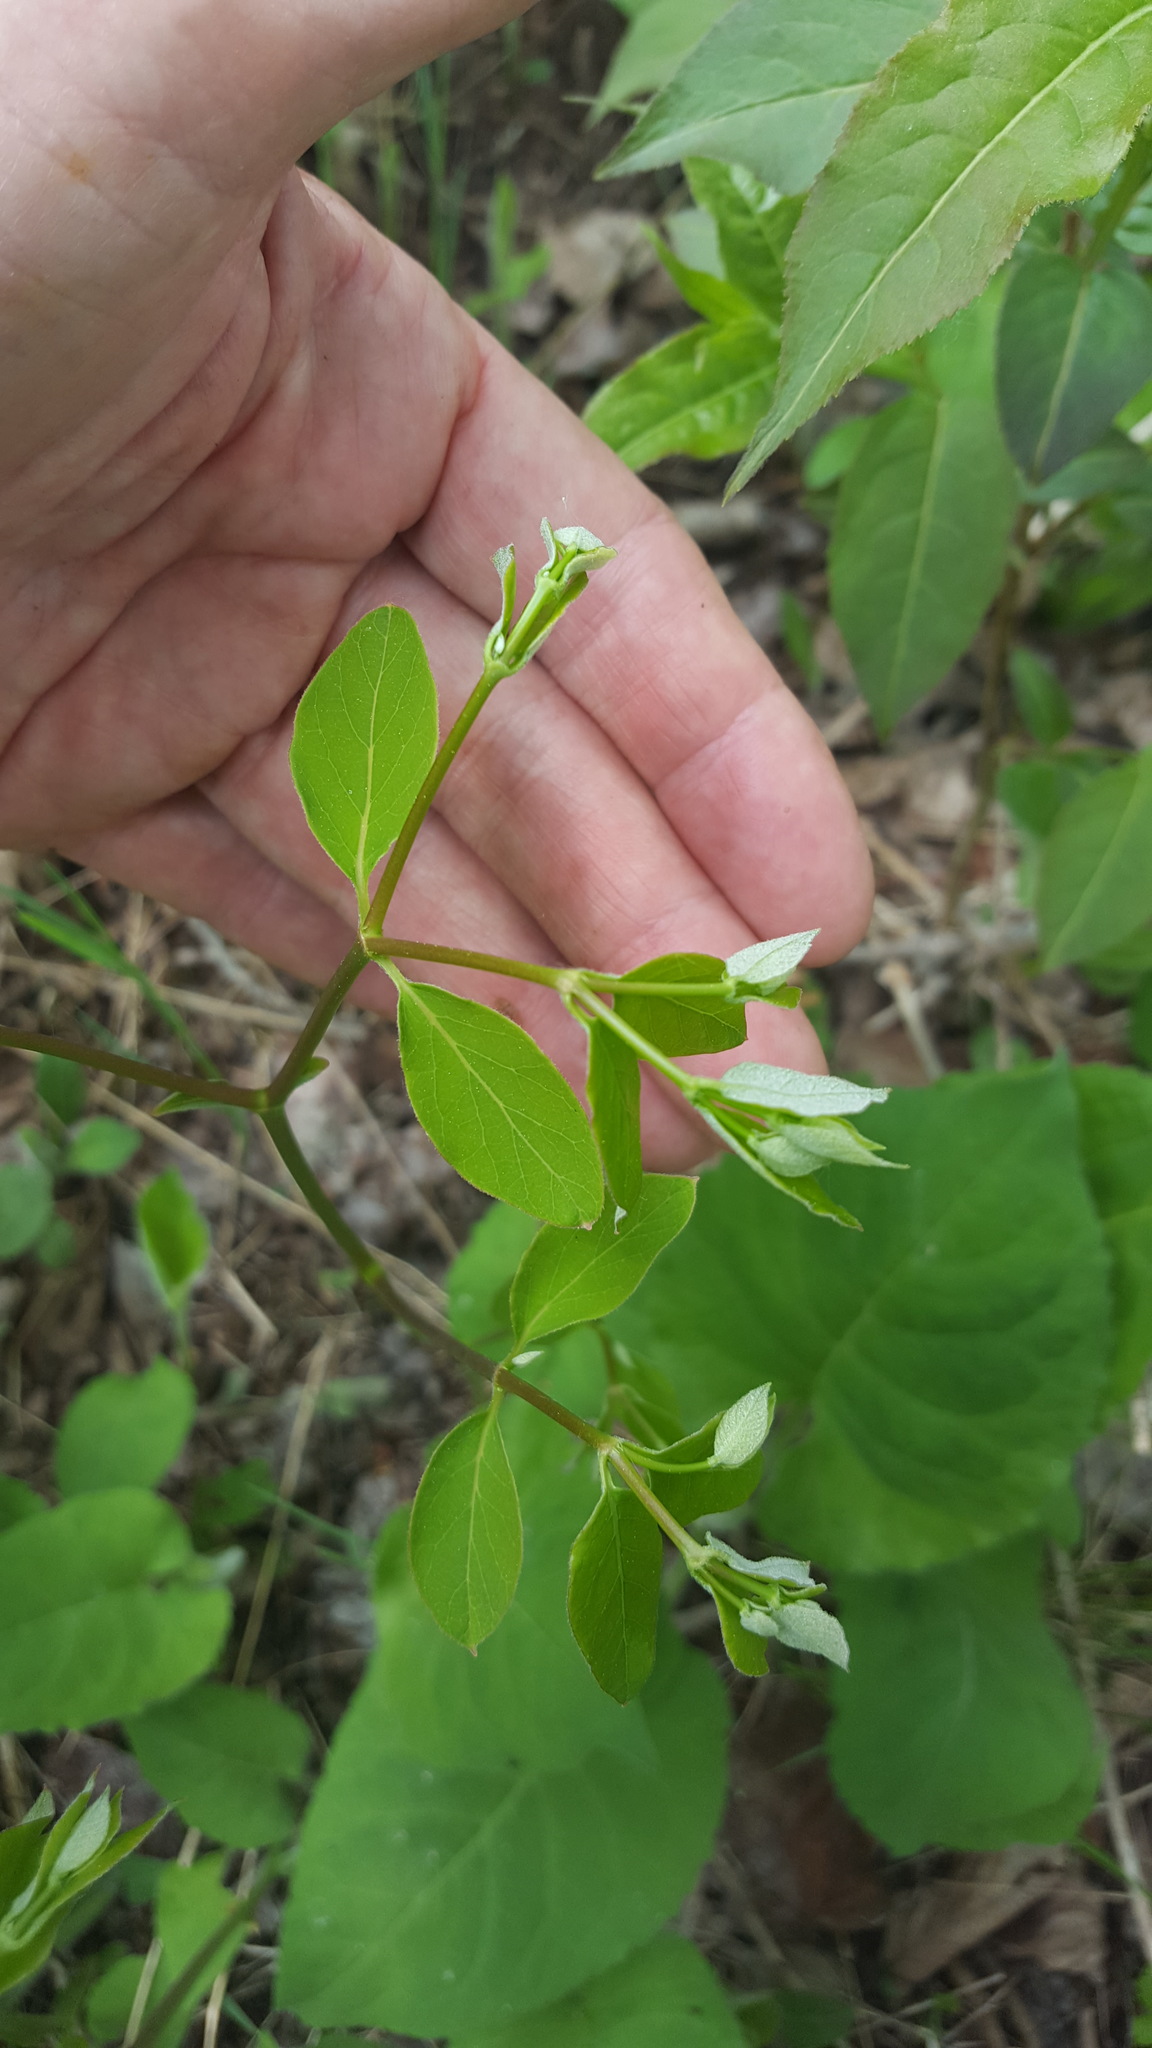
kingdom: Plantae
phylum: Tracheophyta
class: Magnoliopsida
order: Gentianales
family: Apocynaceae
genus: Apocynum
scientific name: Apocynum androsaemifolium
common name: Spreading dogbane
